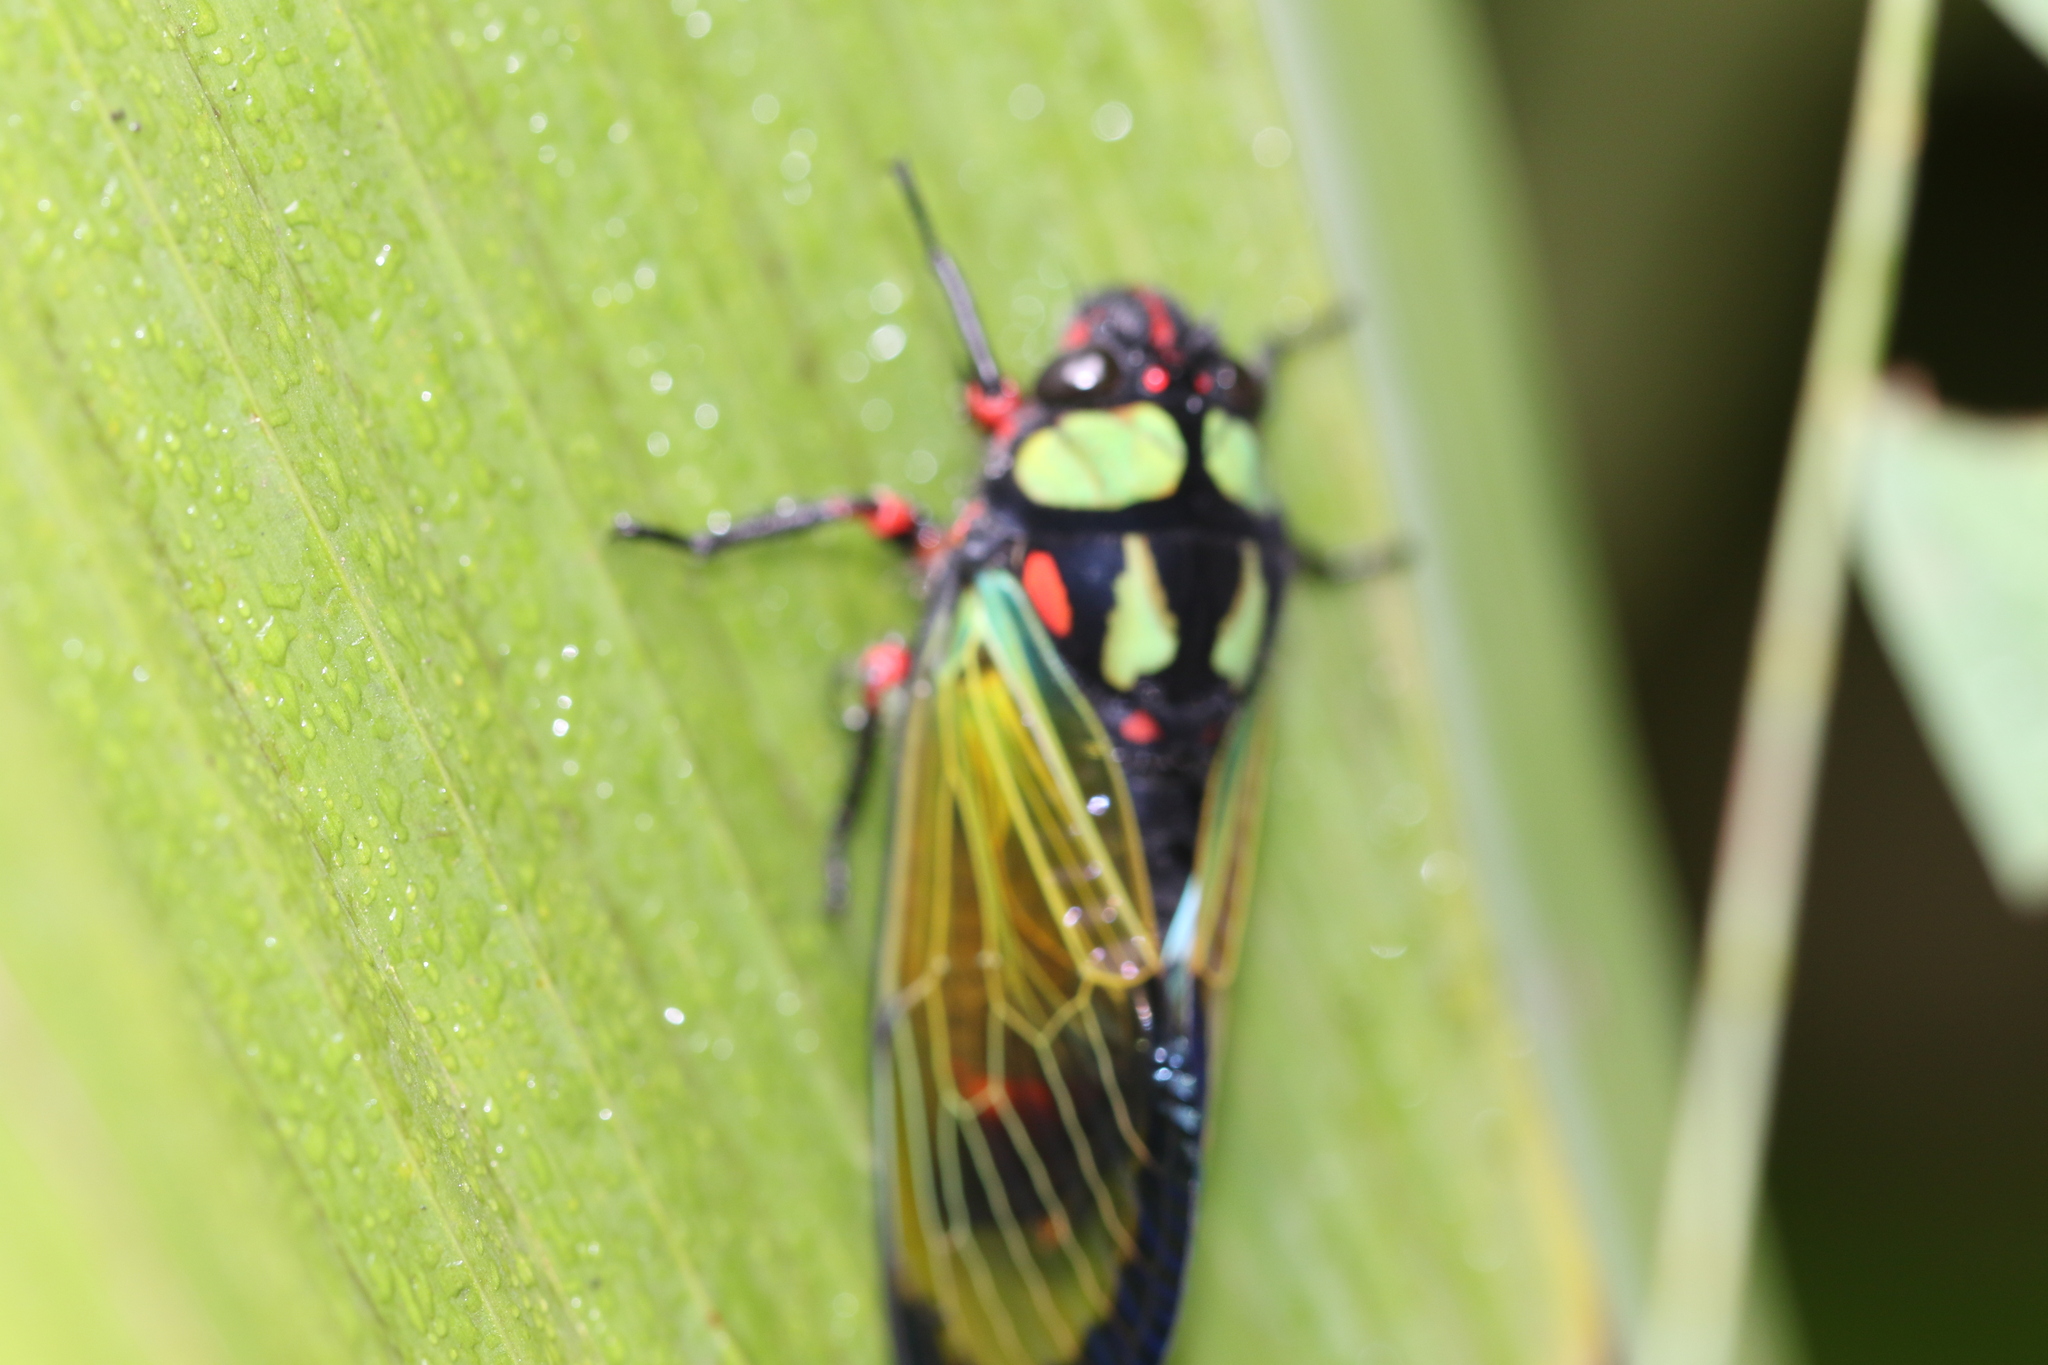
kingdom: Animalia
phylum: Arthropoda
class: Insecta
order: Hemiptera
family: Cicadidae
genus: Carineta
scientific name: Carineta diardi
